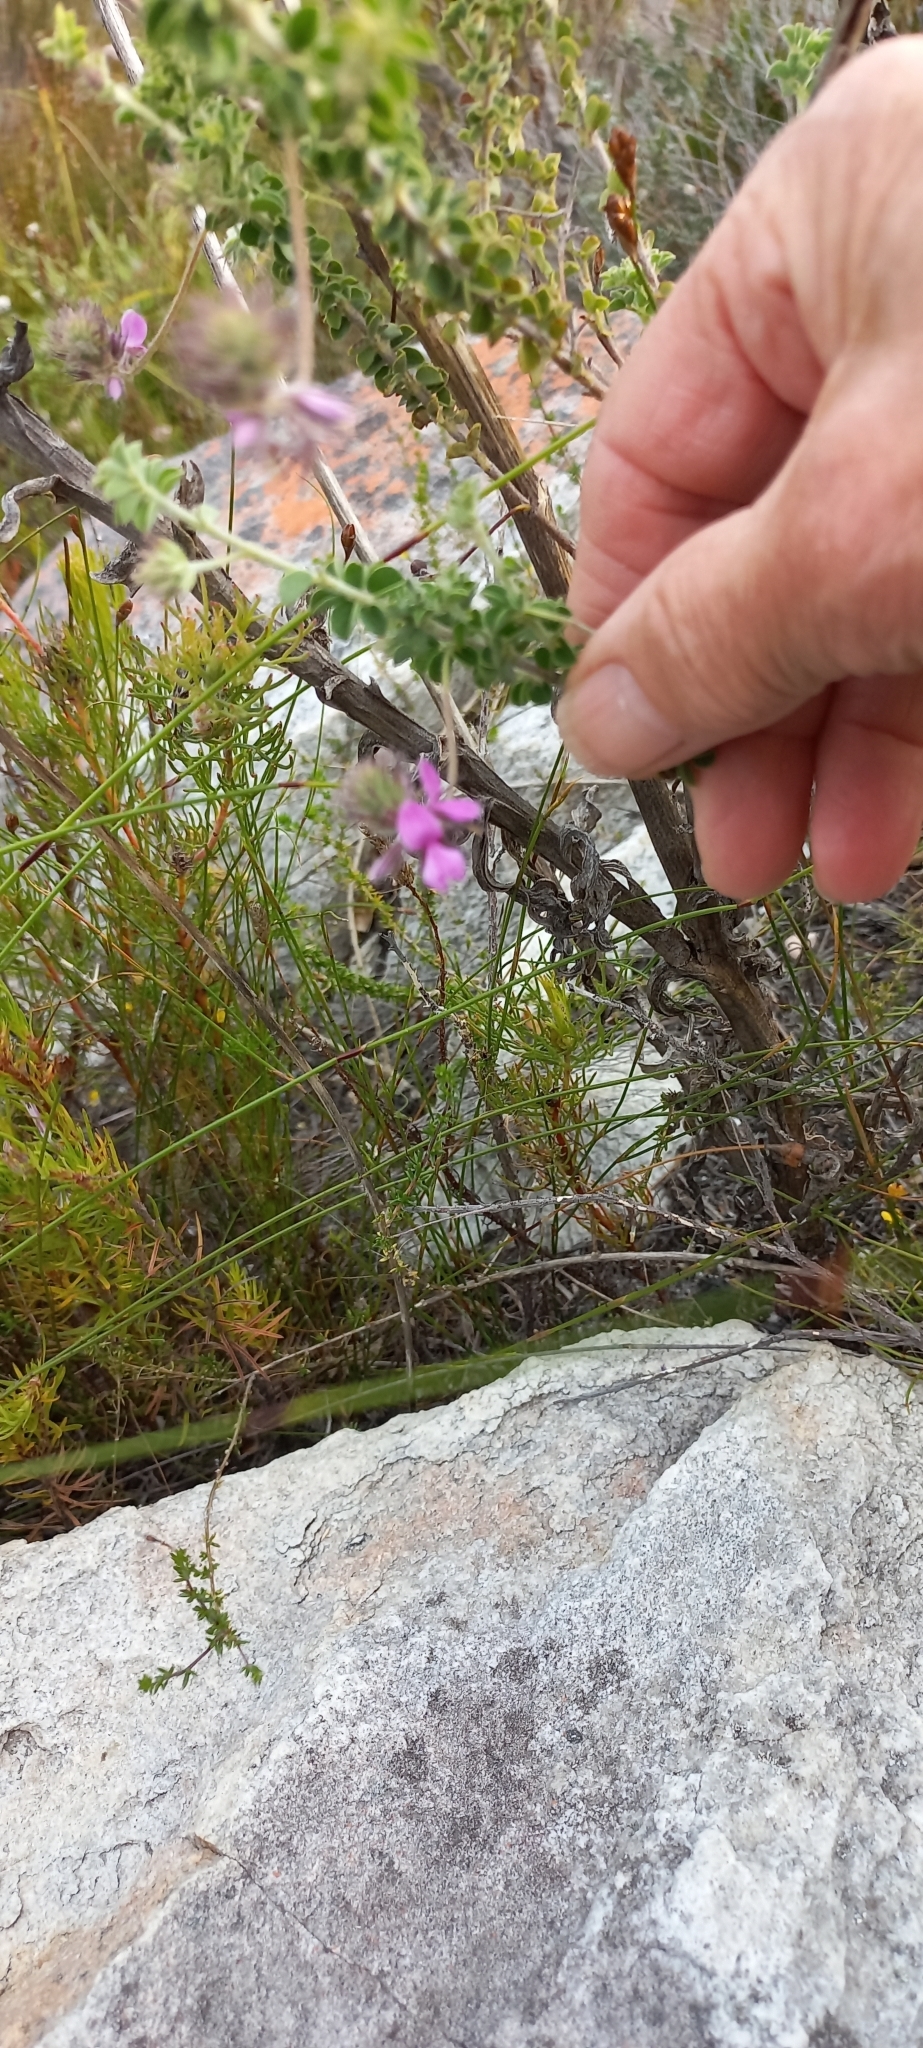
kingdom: Plantae
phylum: Tracheophyta
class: Magnoliopsida
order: Fabales
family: Fabaceae
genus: Indigofera
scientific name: Indigofera alopecuroides
